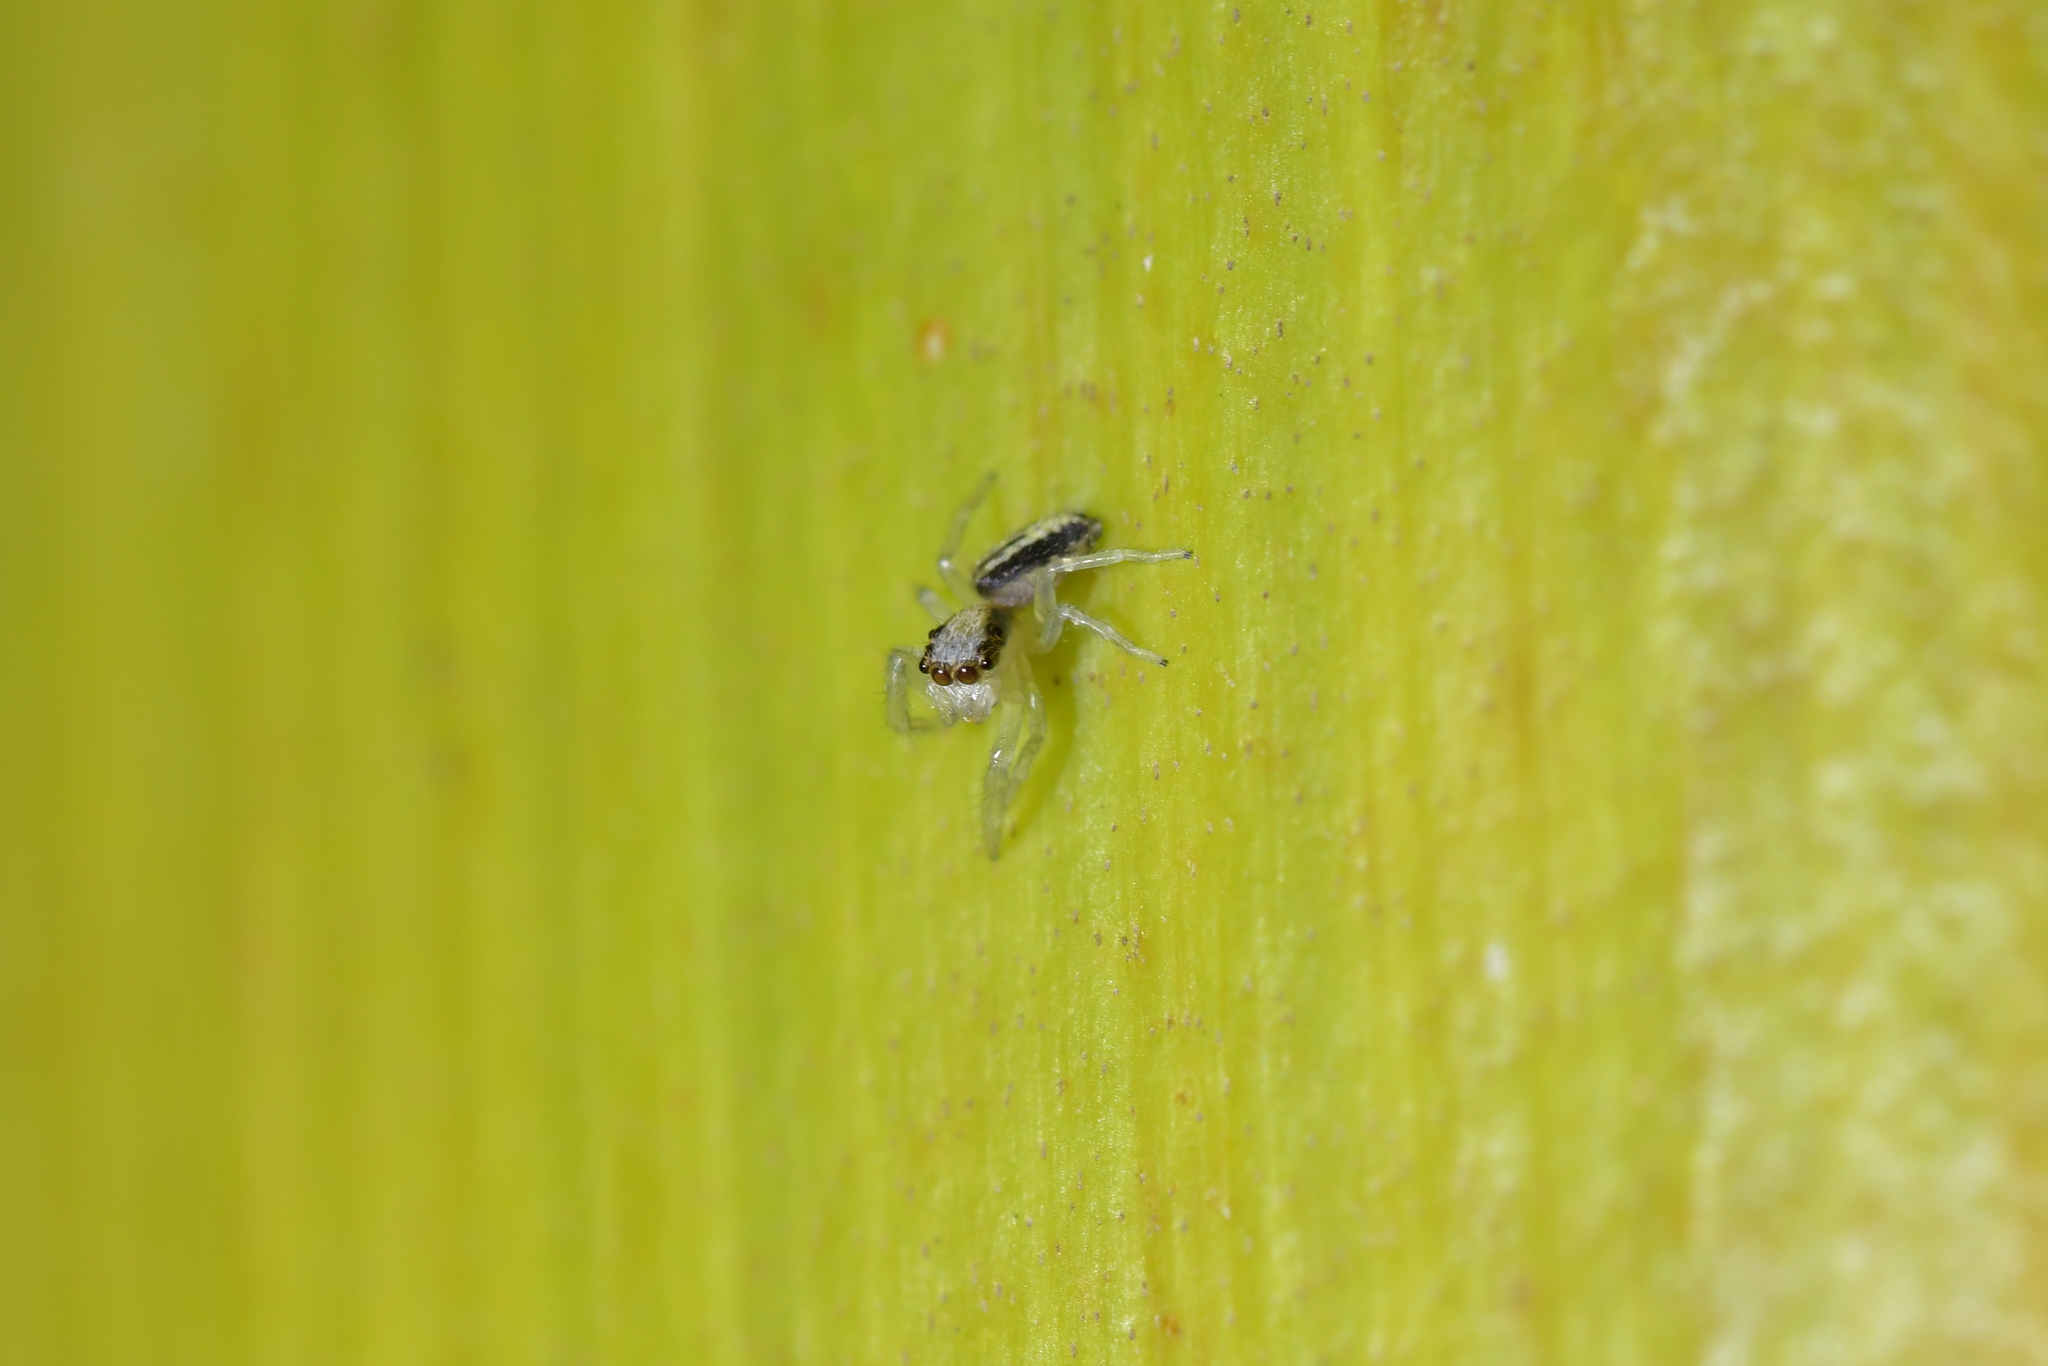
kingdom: Animalia
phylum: Arthropoda
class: Arachnida
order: Araneae
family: Salticidae
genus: Trite
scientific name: Trite planiceps
